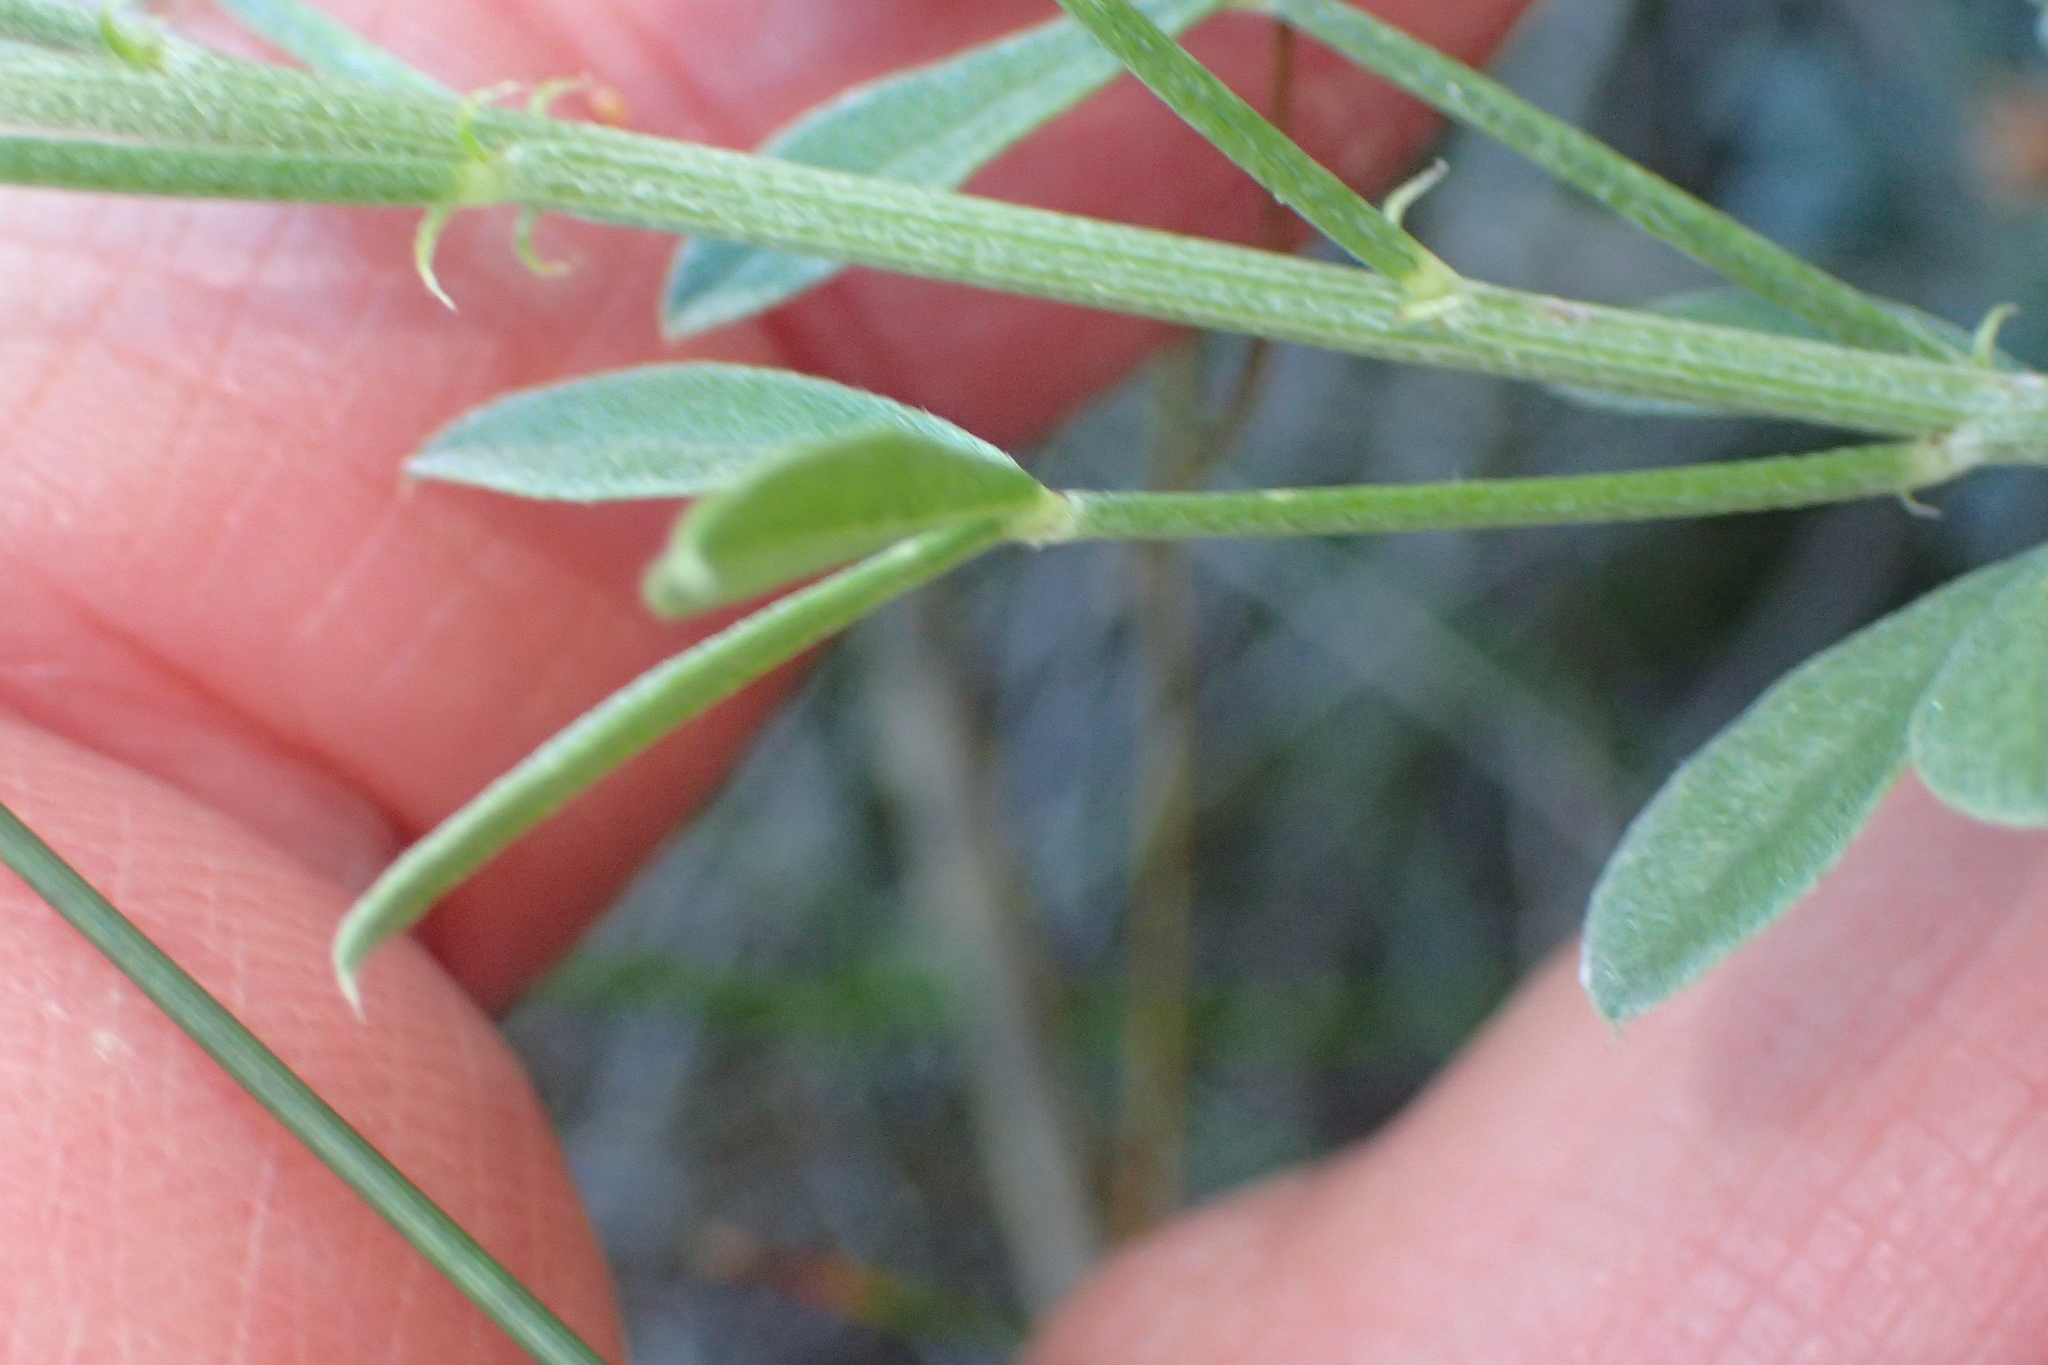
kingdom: Plantae
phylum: Tracheophyta
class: Magnoliopsida
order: Fabales
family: Fabaceae
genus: Indigofera
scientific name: Indigofera heterophylla
